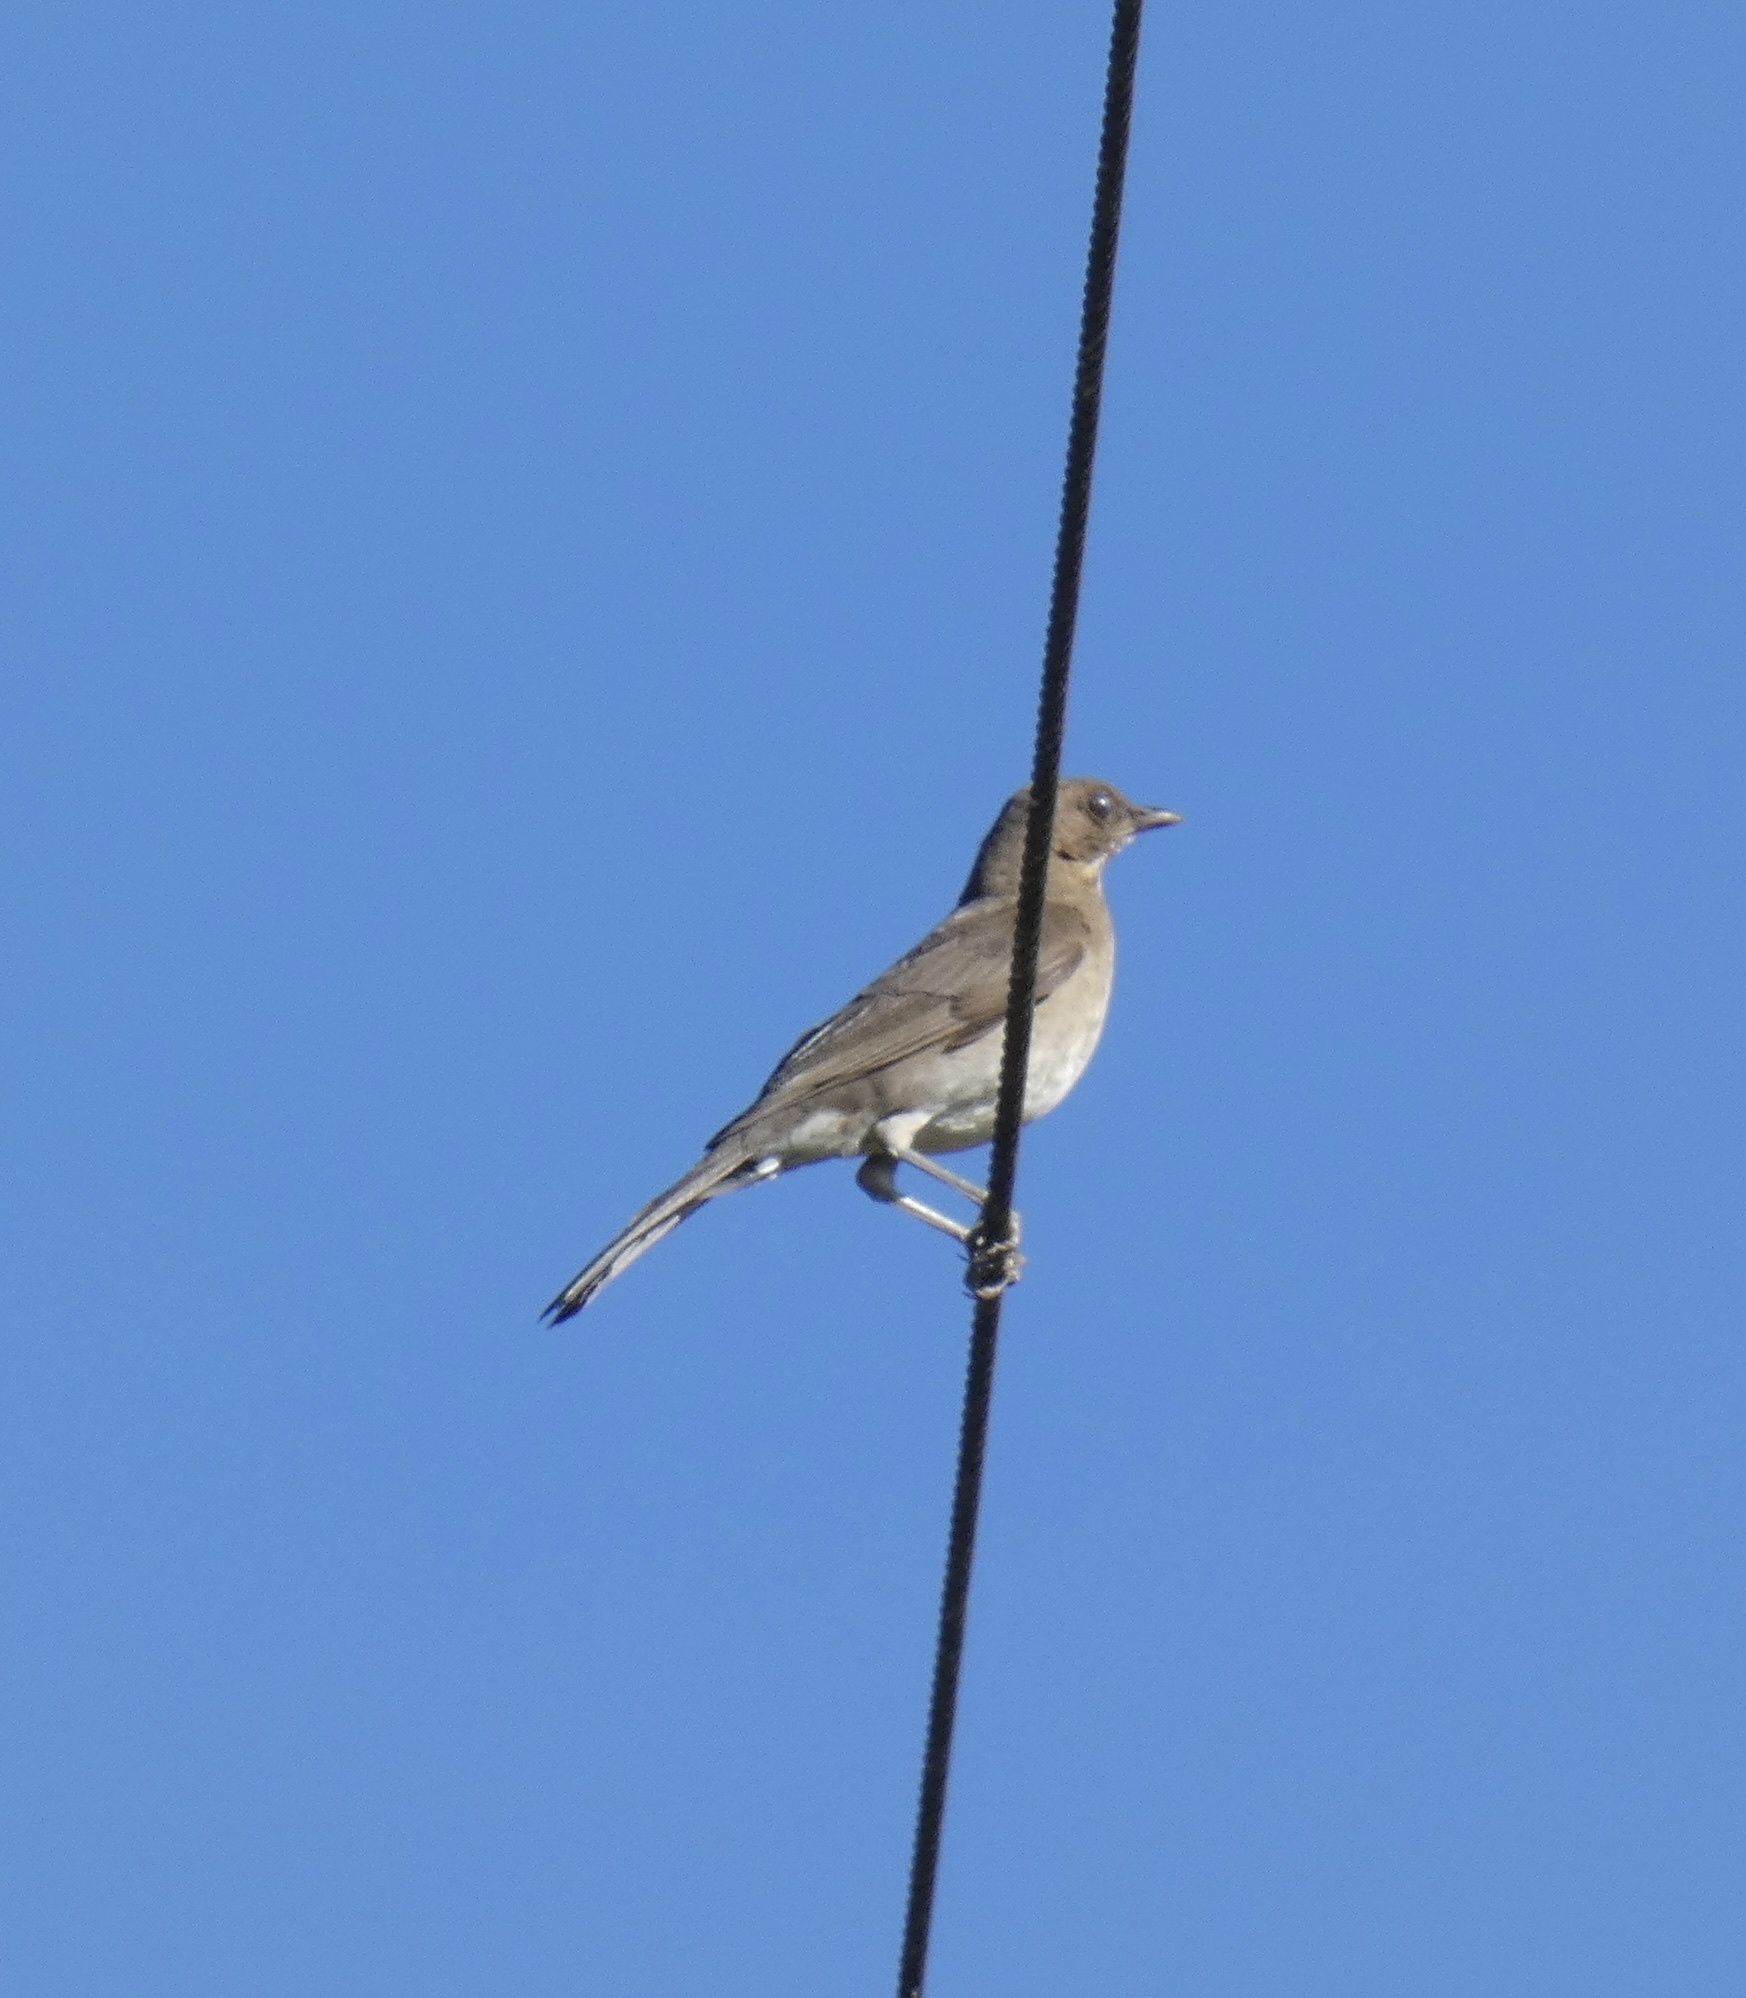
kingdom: Animalia
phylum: Chordata
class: Aves
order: Passeriformes
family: Turdidae
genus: Turdus
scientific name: Turdus amaurochalinus
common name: Creamy-bellied thrush
